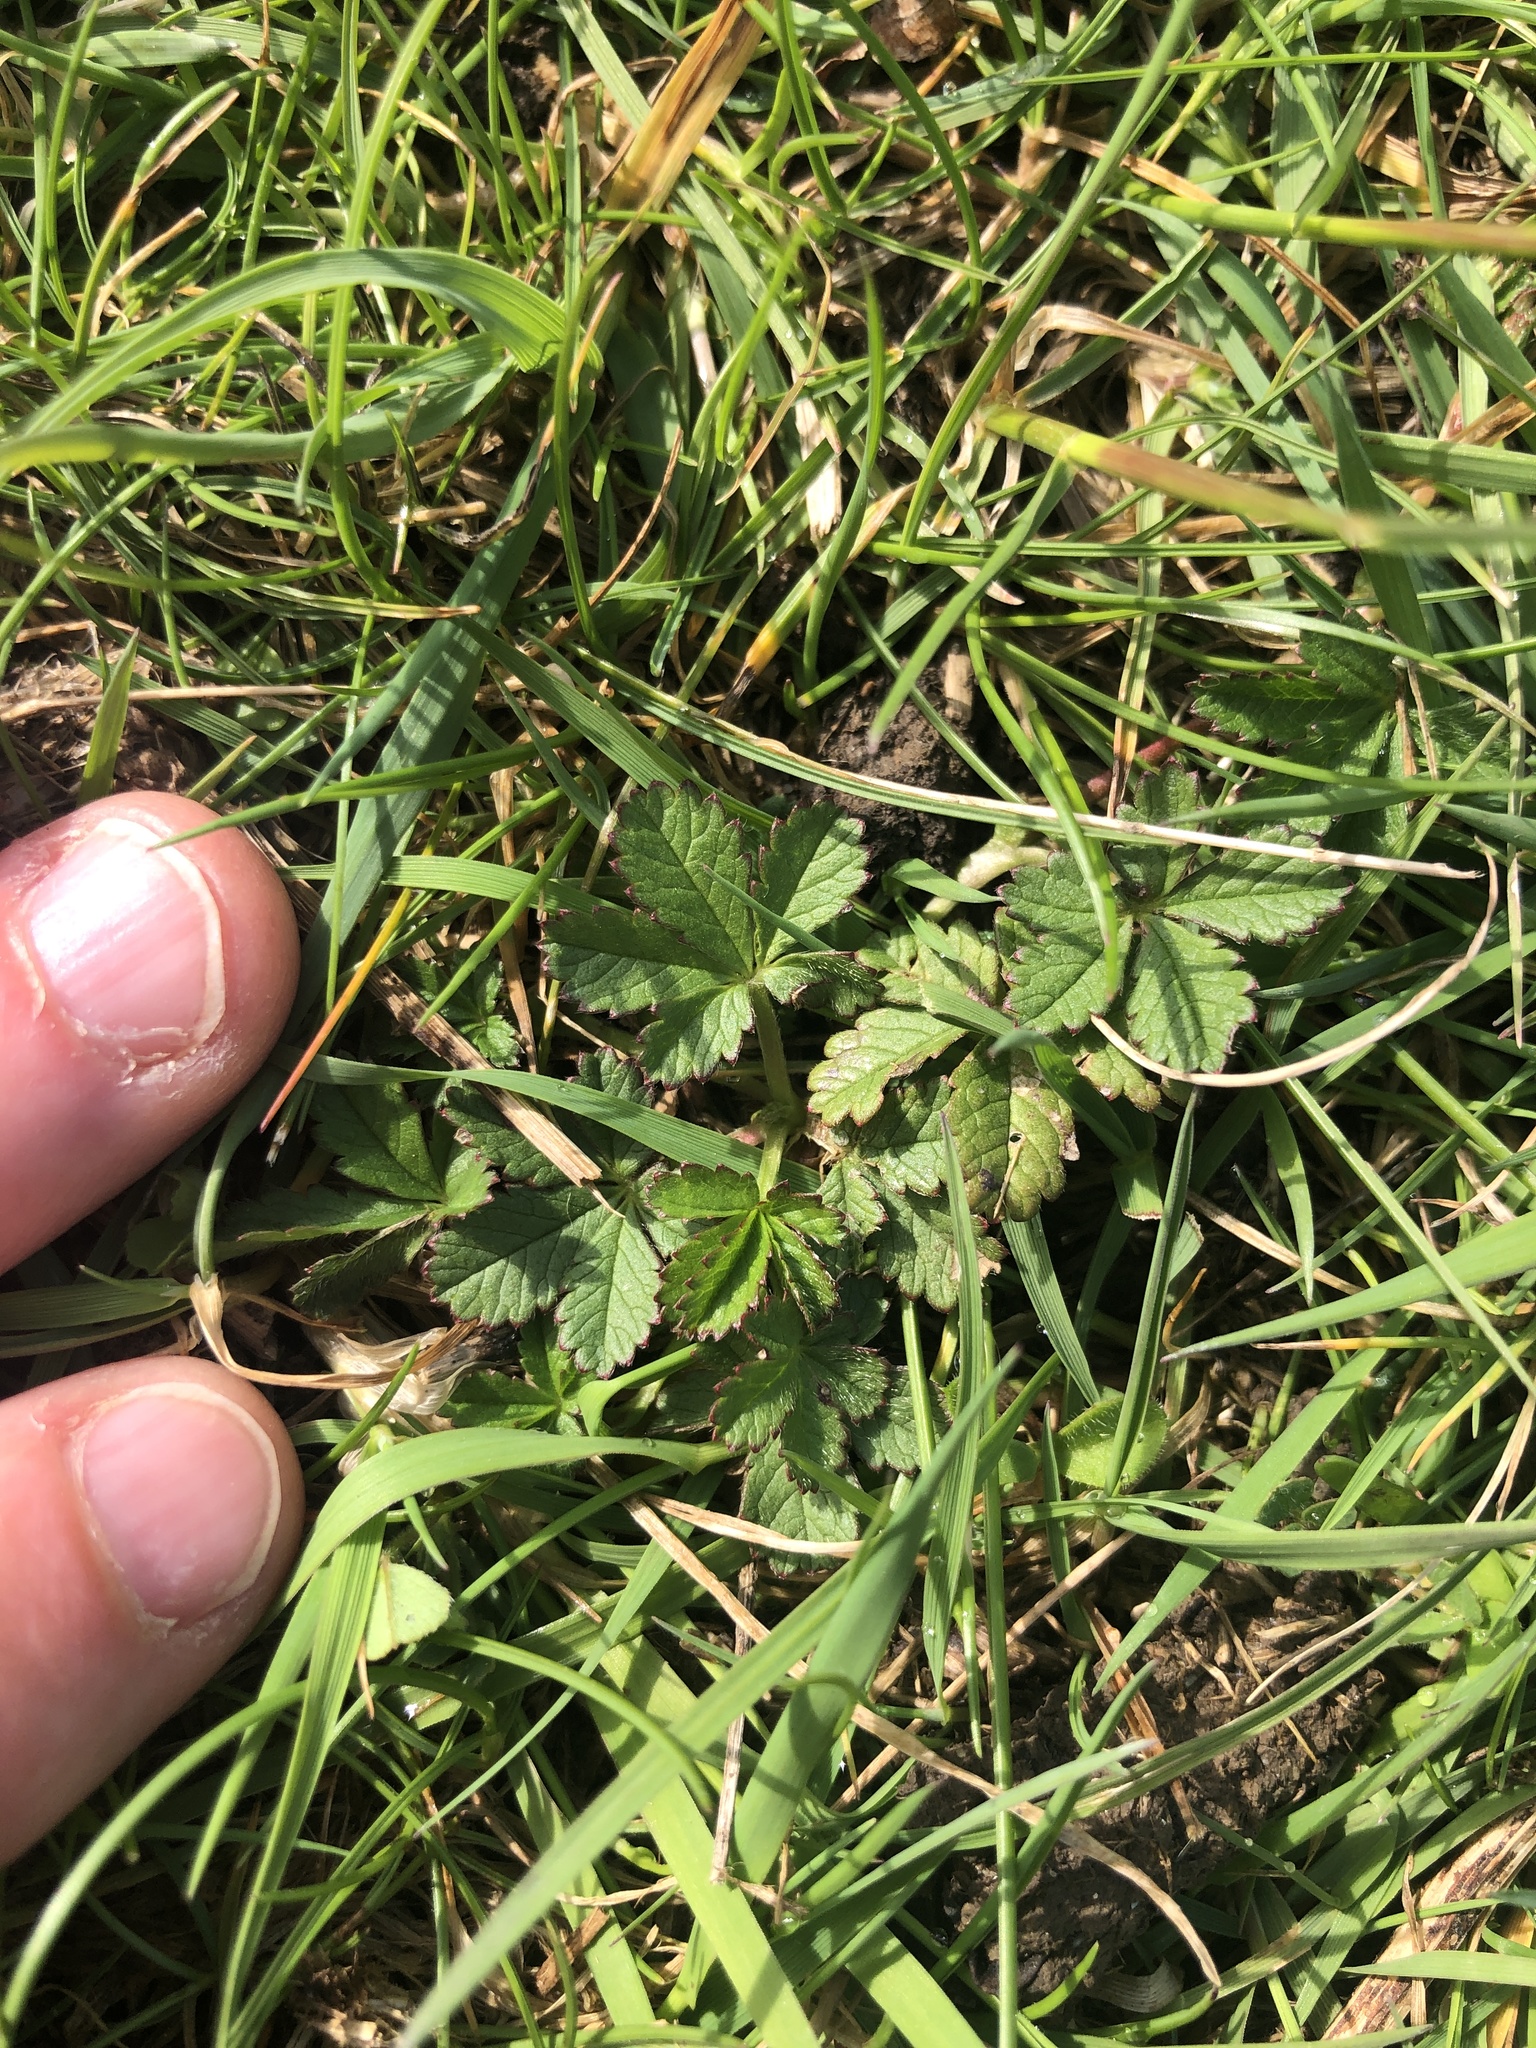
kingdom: Plantae
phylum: Tracheophyta
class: Magnoliopsida
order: Rosales
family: Rosaceae
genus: Potentilla
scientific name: Potentilla reptans
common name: Creeping cinquefoil
